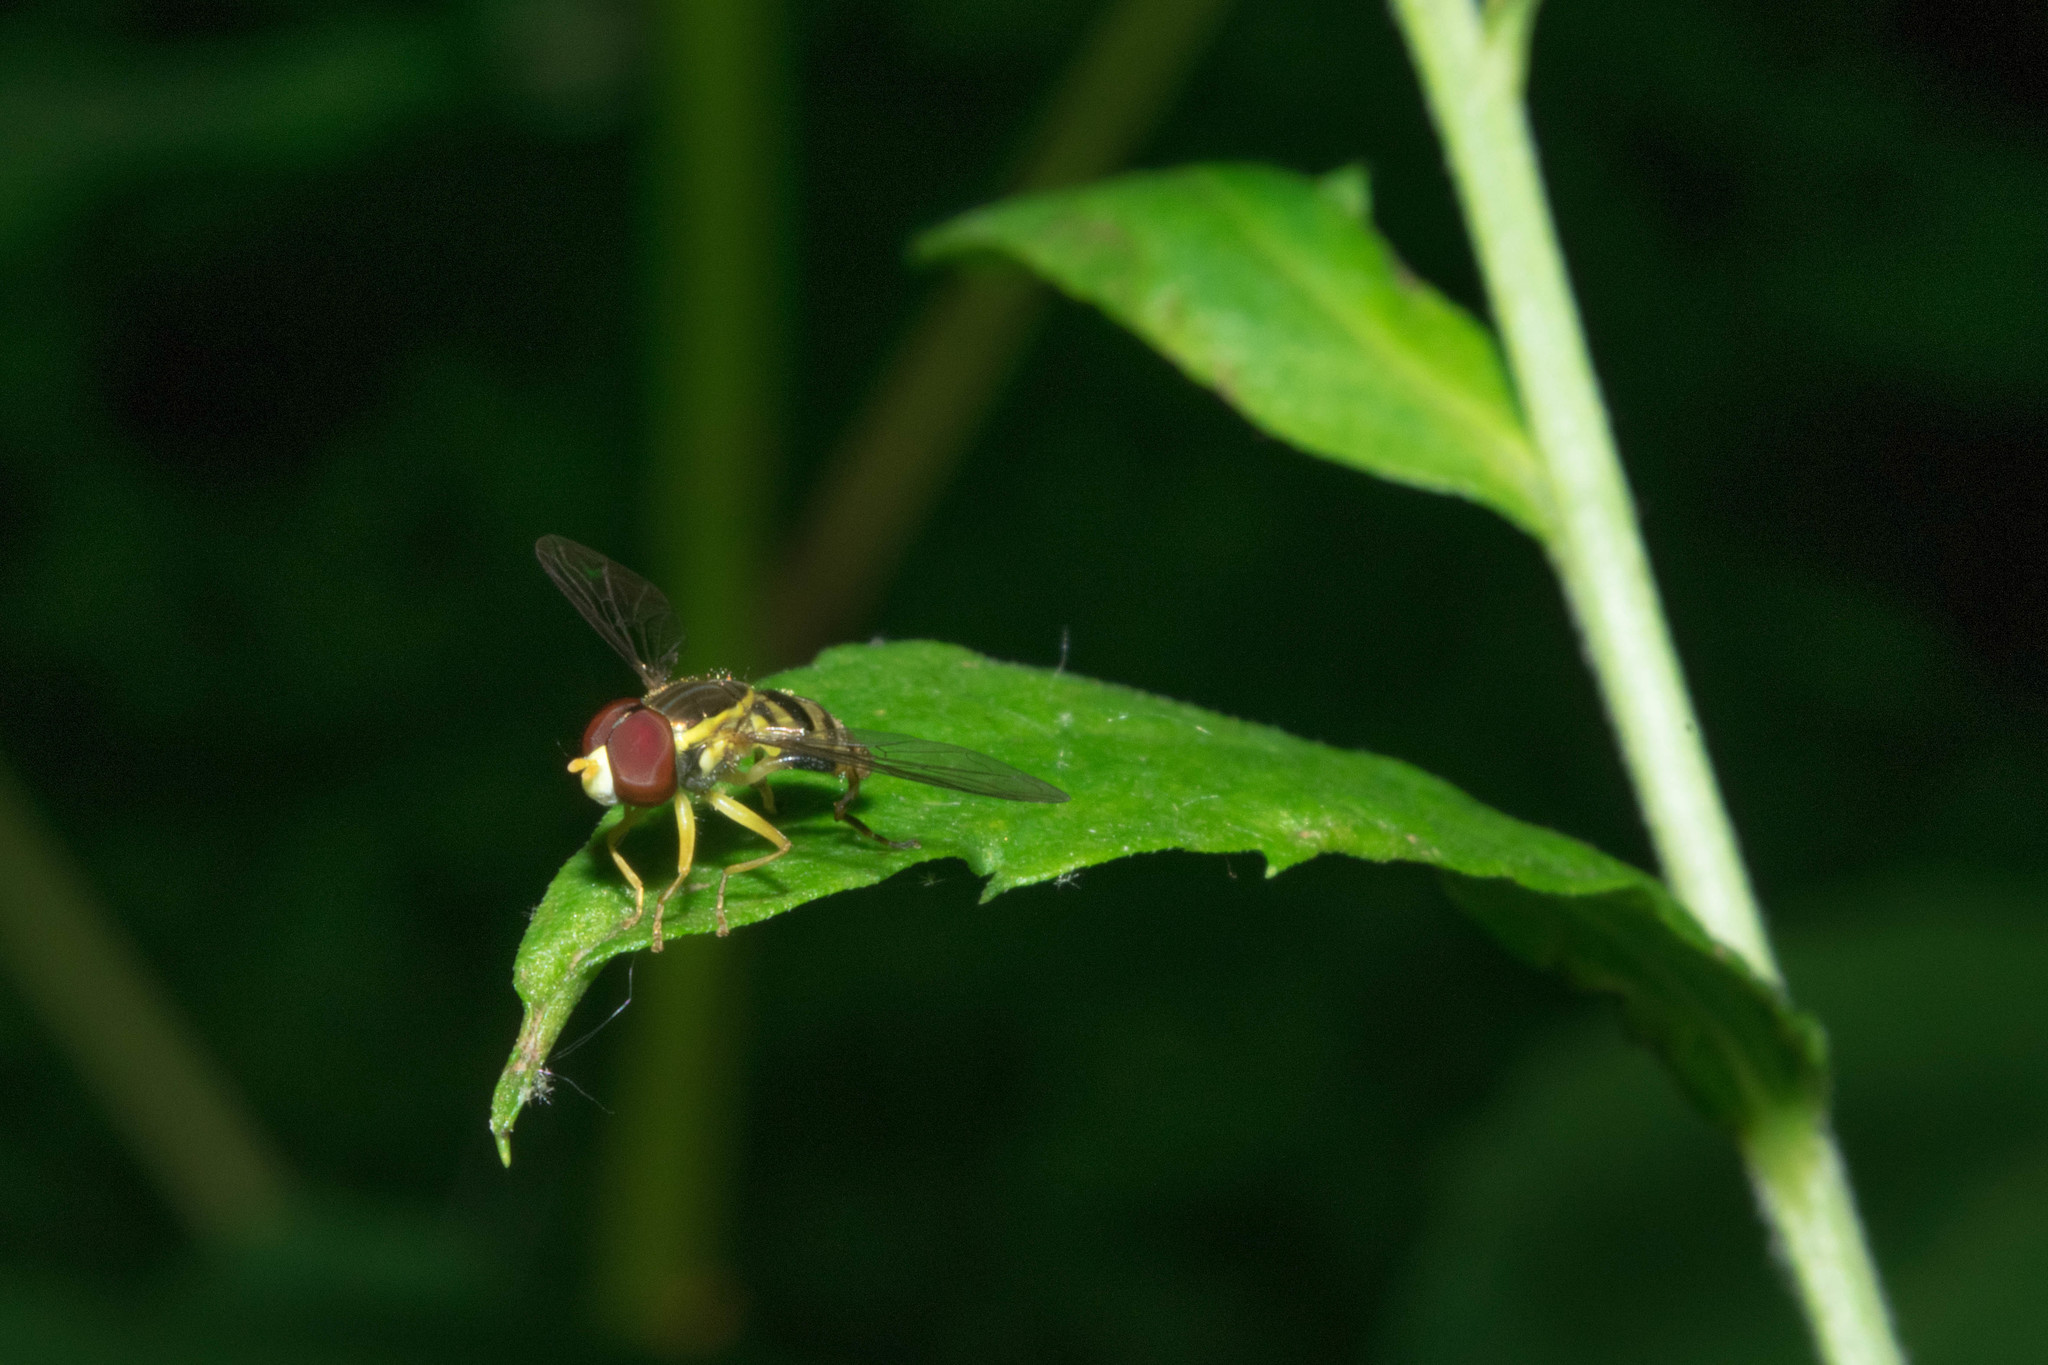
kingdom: Animalia
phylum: Arthropoda
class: Insecta
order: Diptera
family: Syrphidae
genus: Toxomerus
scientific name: Toxomerus geminatus
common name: Eastern calligrapher
